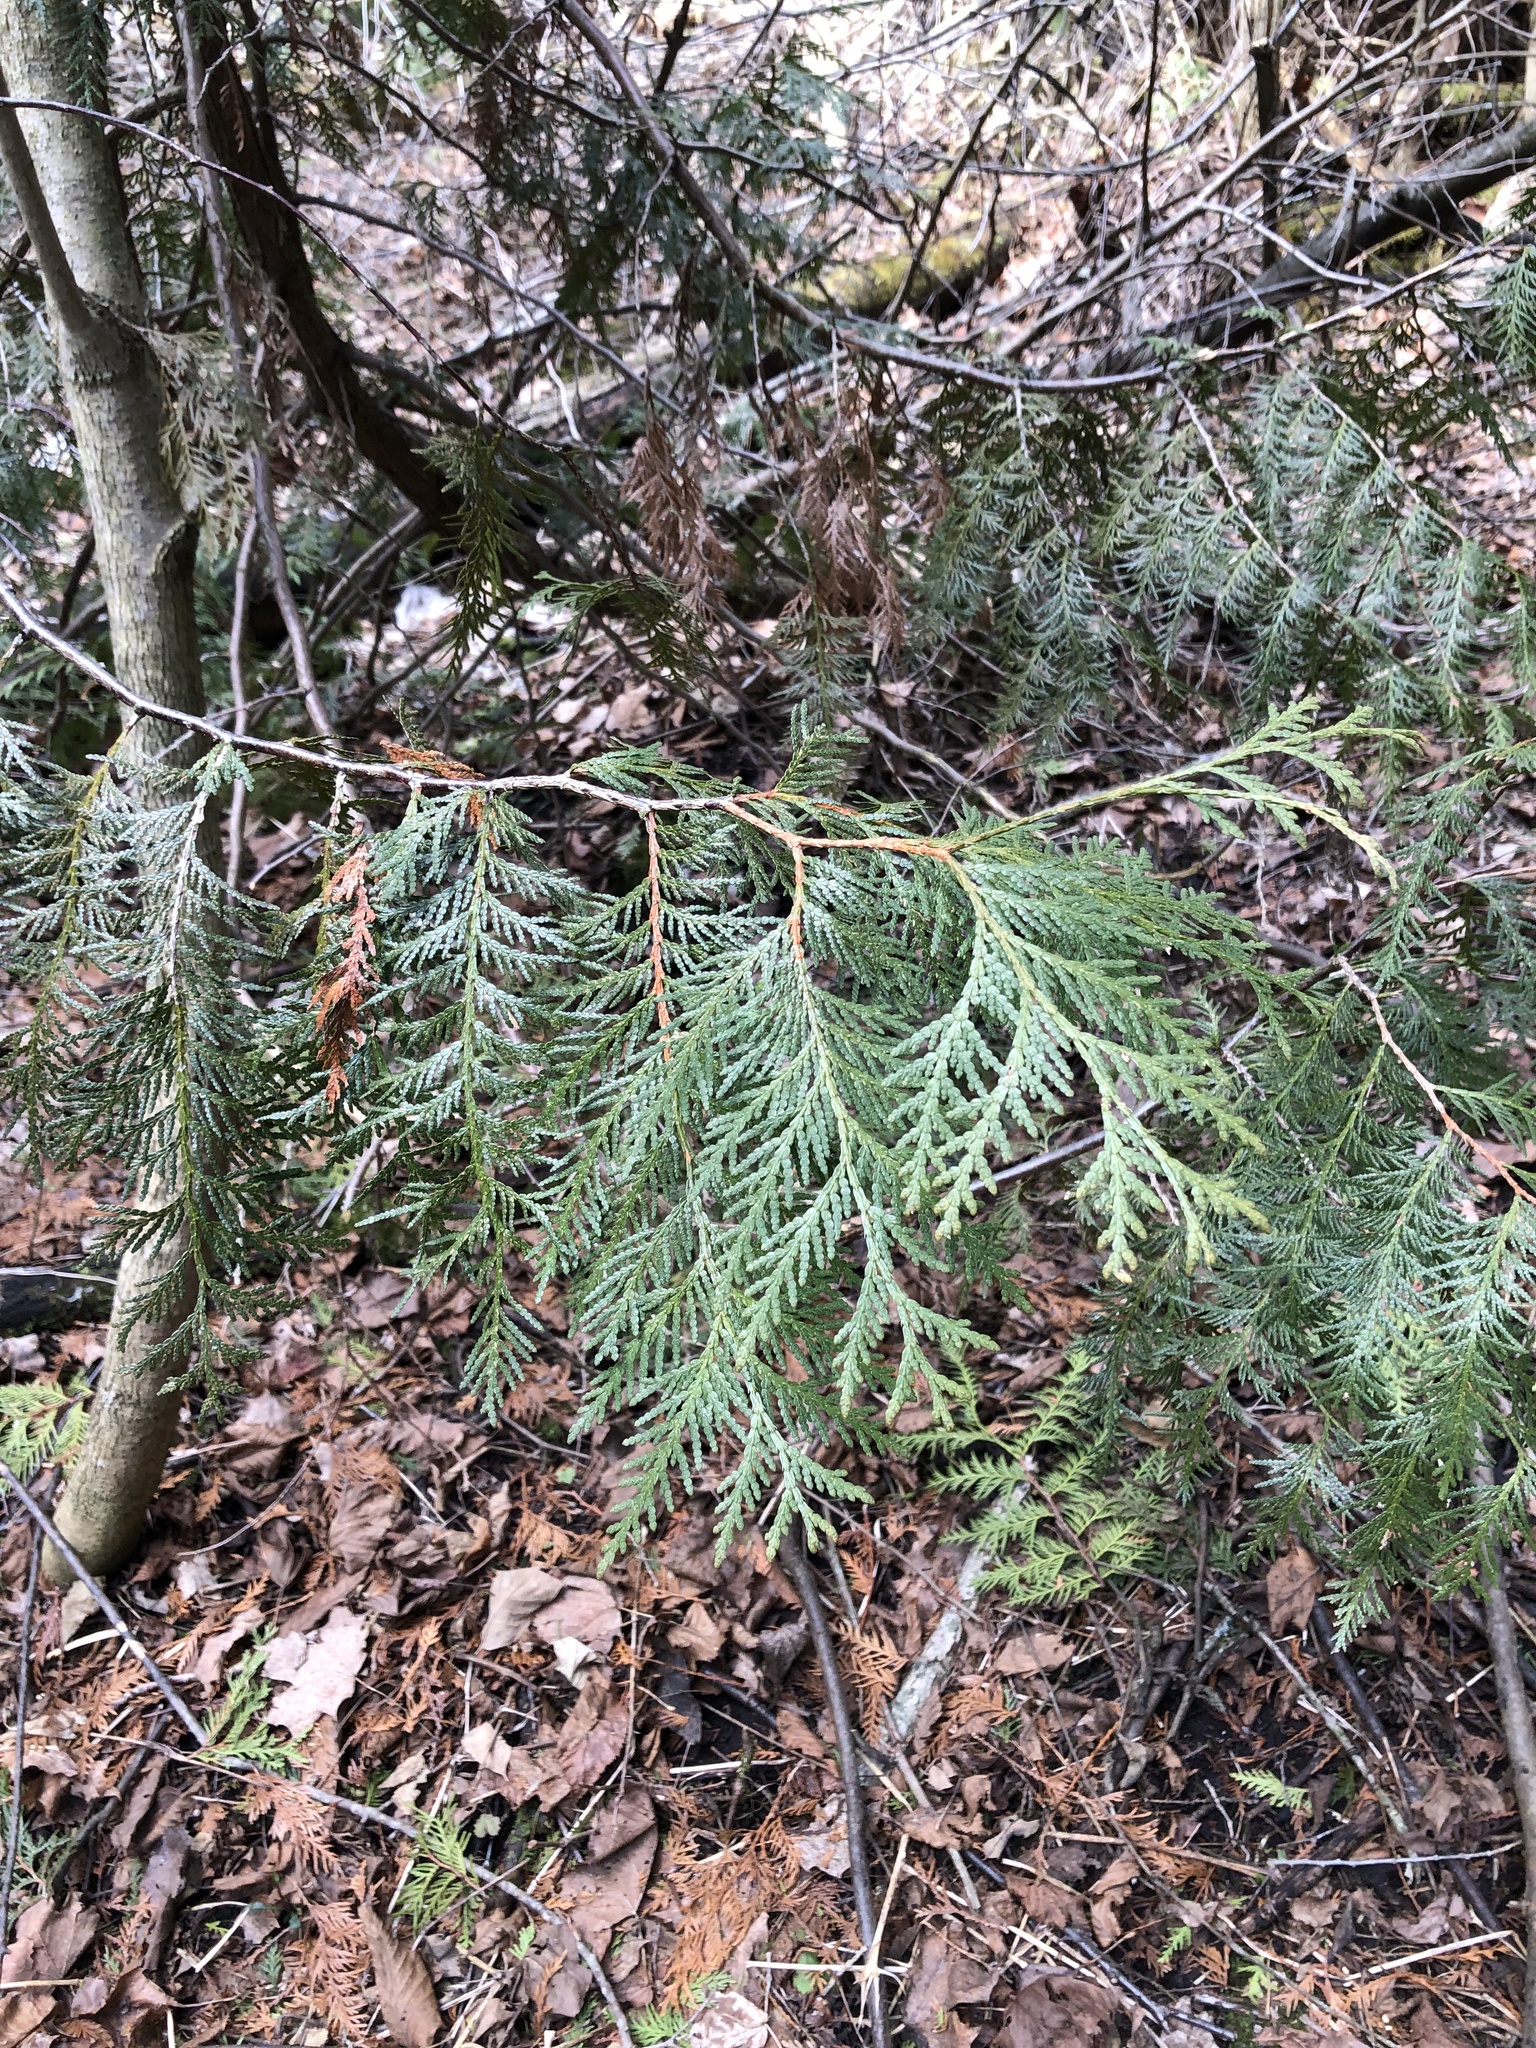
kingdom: Plantae
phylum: Tracheophyta
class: Pinopsida
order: Pinales
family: Cupressaceae
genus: Thuja
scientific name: Thuja occidentalis
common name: Northern white-cedar
